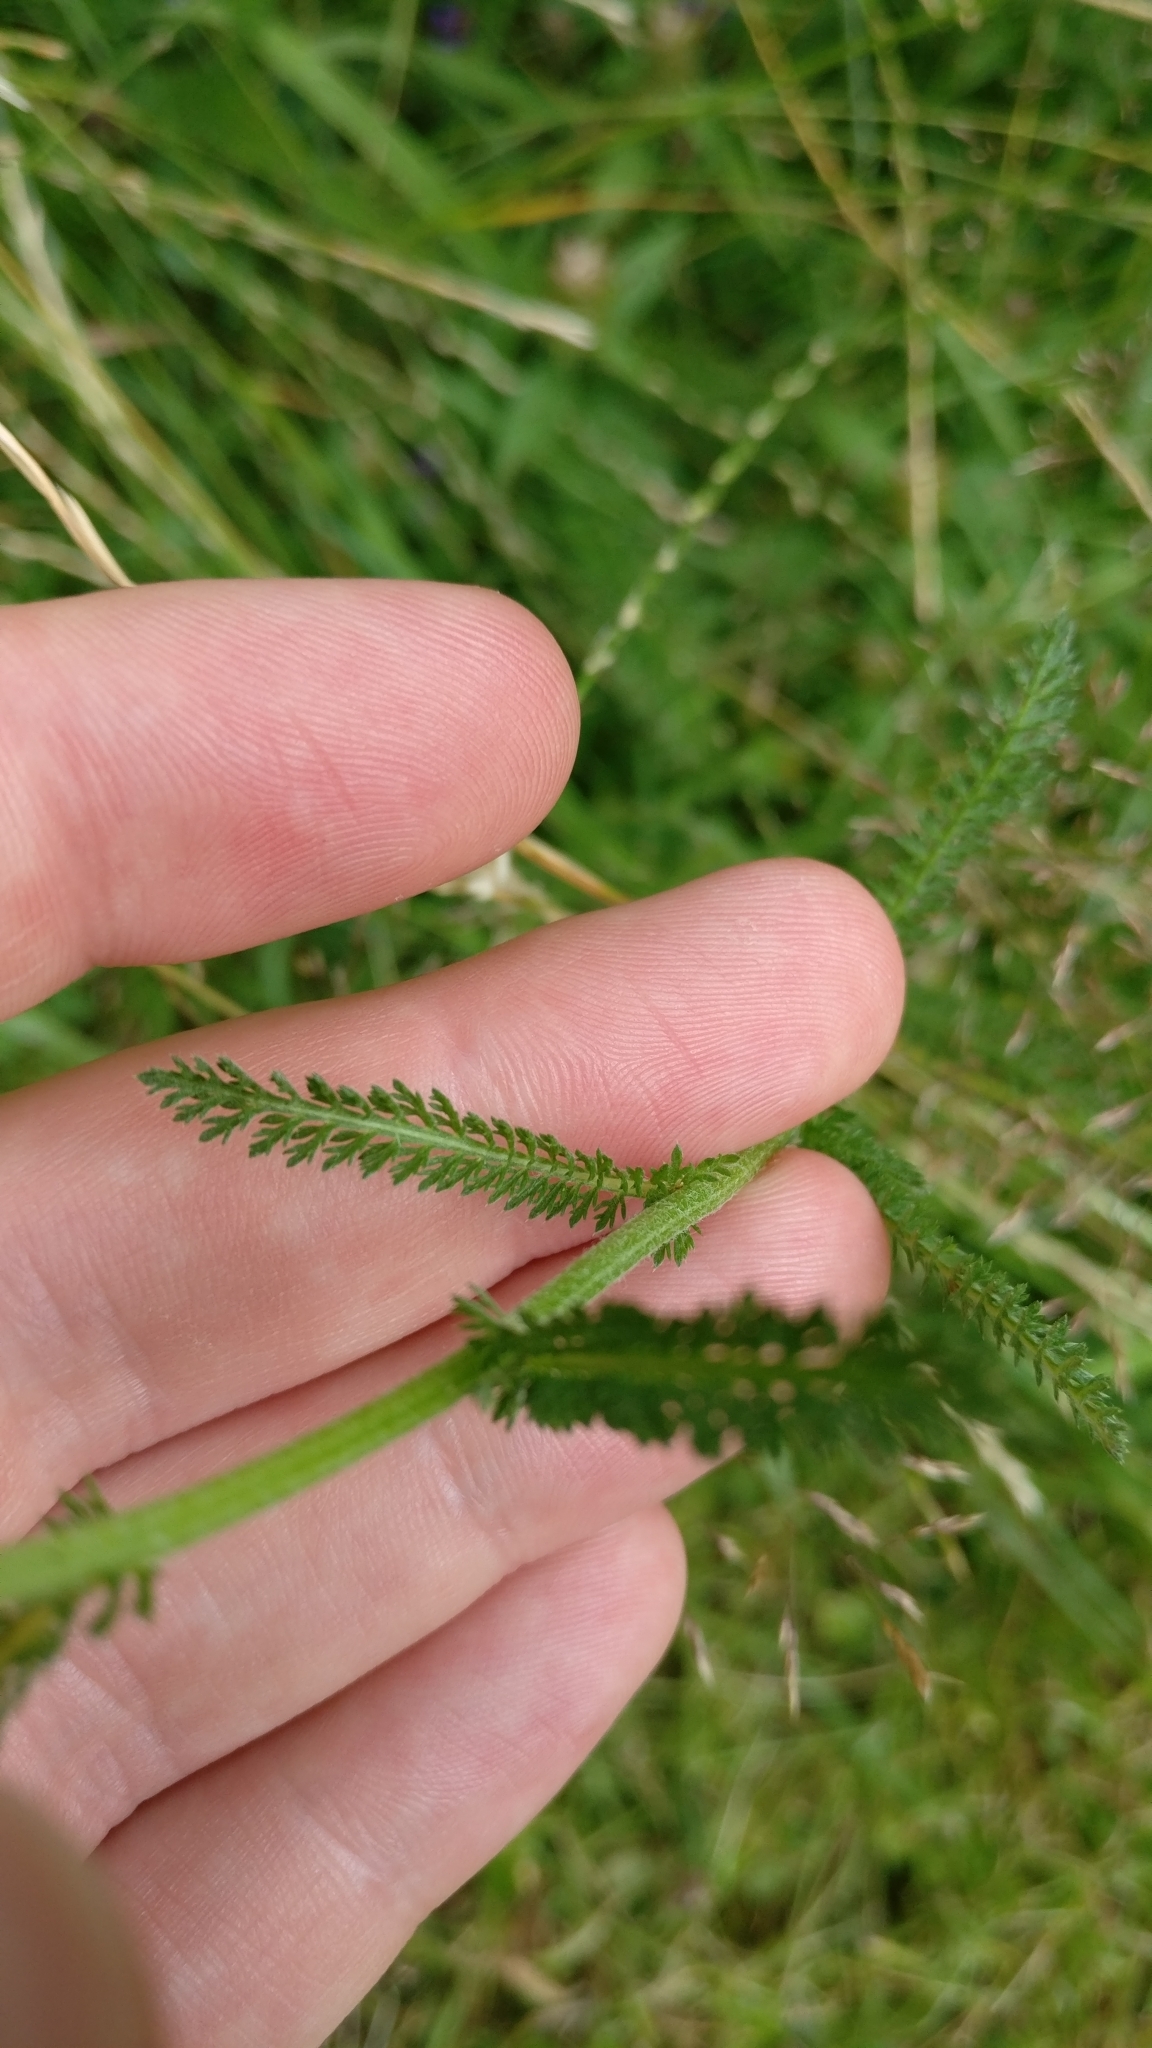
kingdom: Plantae
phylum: Tracheophyta
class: Magnoliopsida
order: Asterales
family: Asteraceae
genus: Achillea
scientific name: Achillea millefolium
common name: Yarrow
